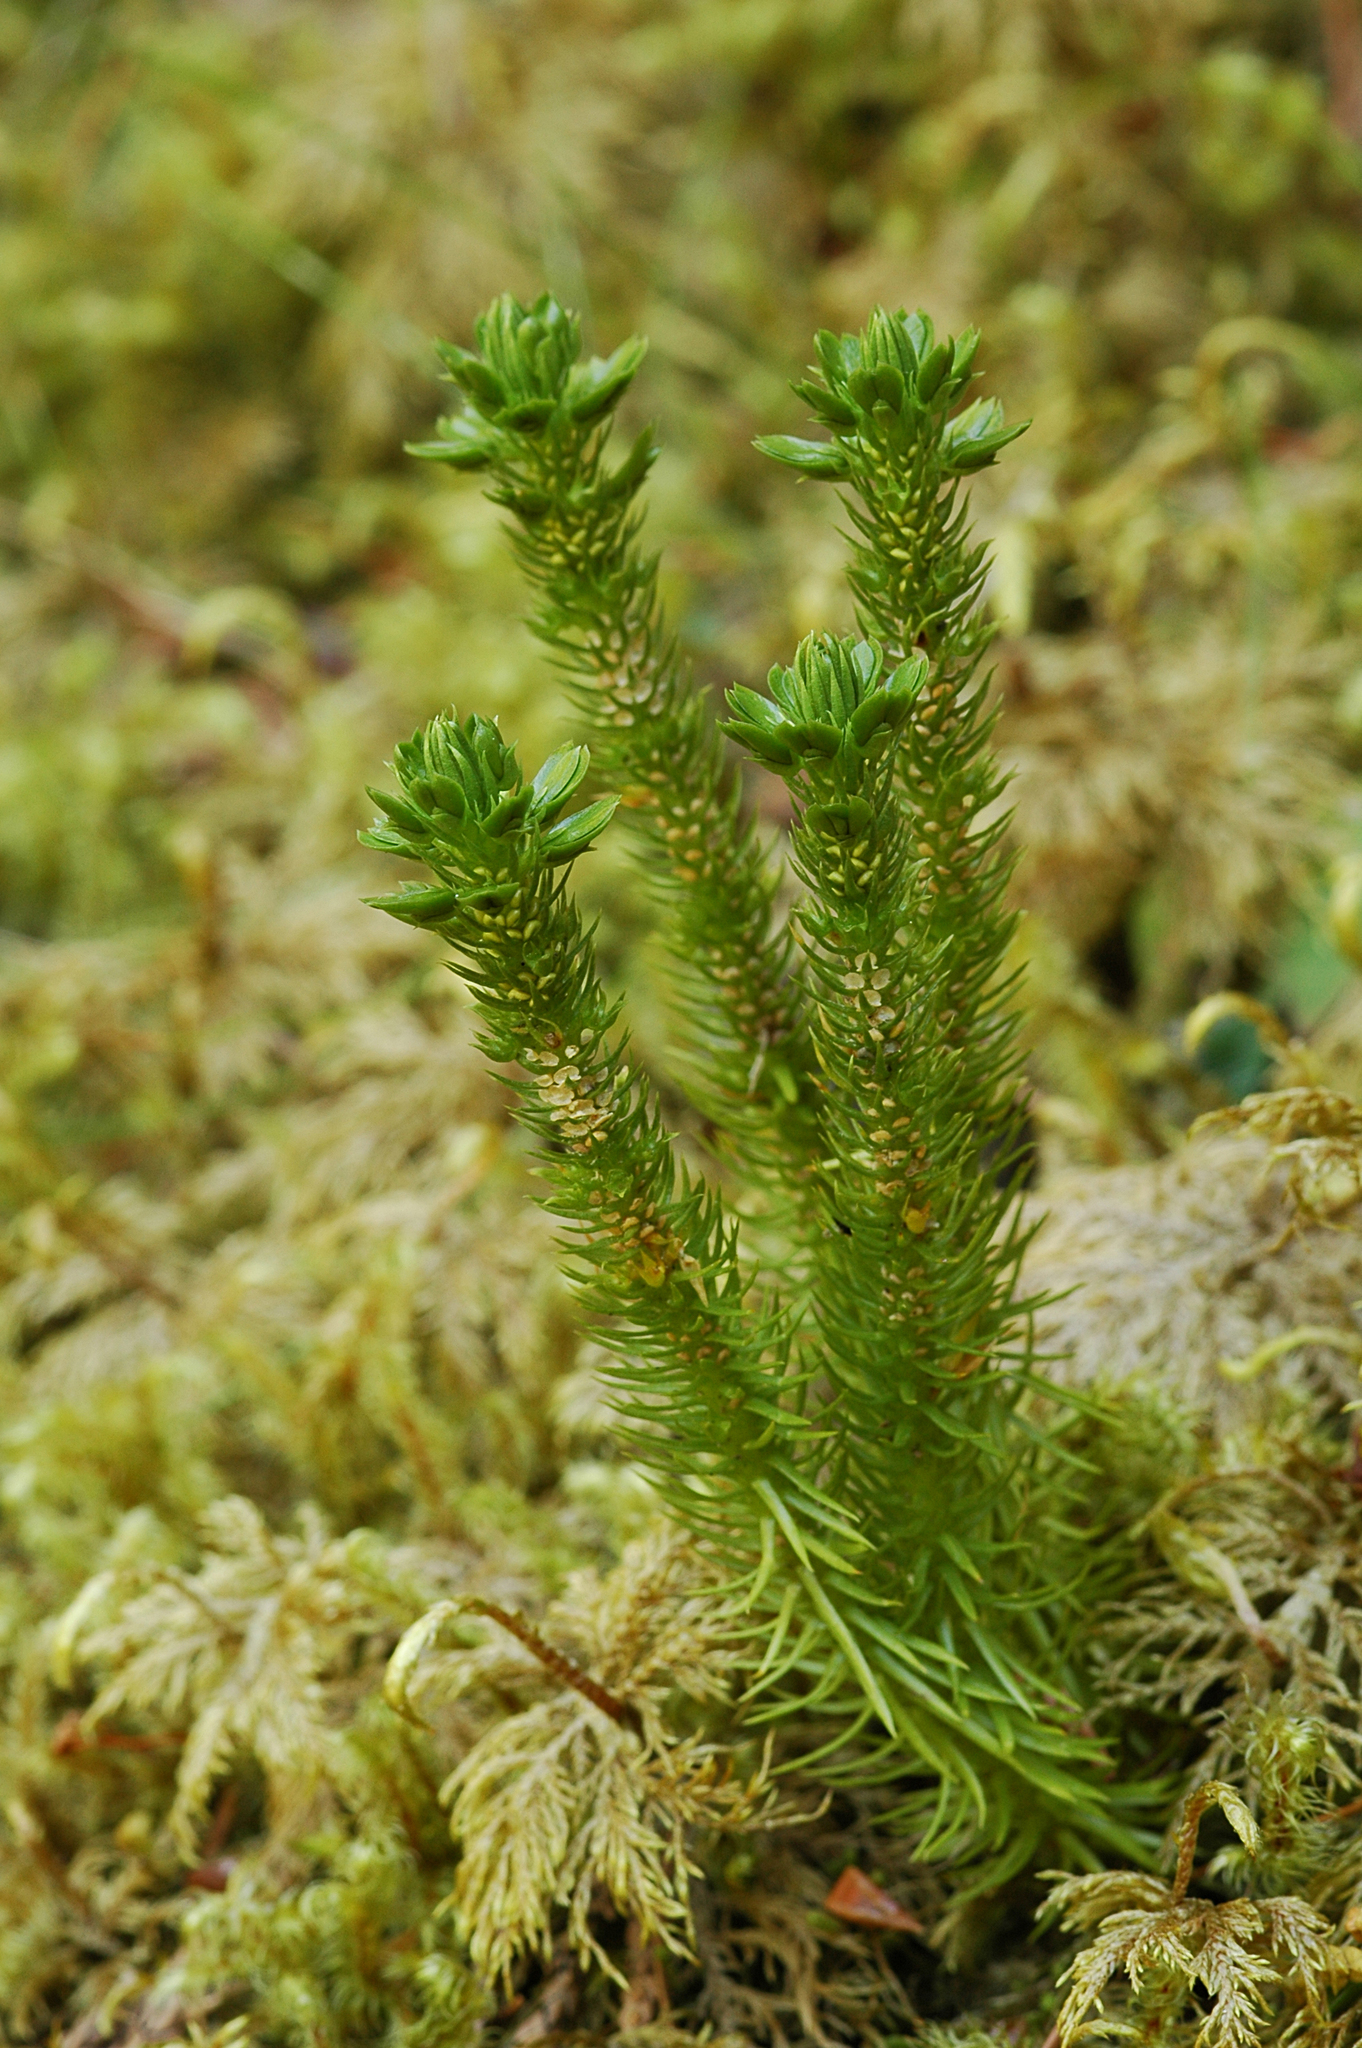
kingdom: Plantae
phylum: Tracheophyta
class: Lycopodiopsida
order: Lycopodiales
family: Lycopodiaceae
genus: Huperzia
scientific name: Huperzia miyoshiana
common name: Chinese clubmoss
